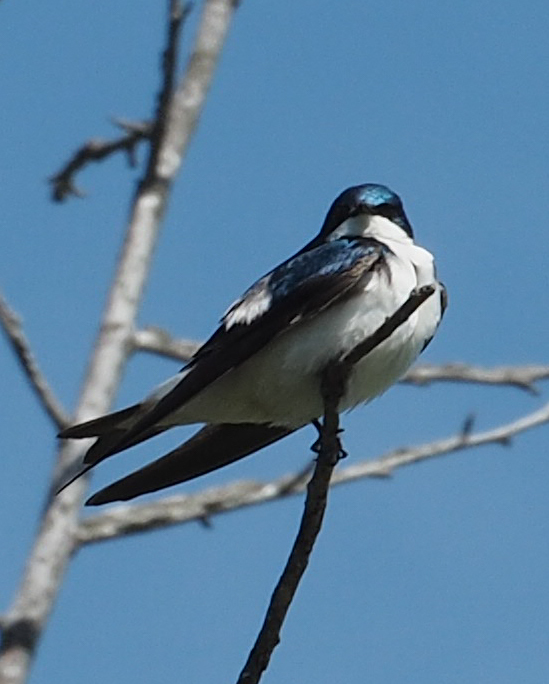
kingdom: Animalia
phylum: Chordata
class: Aves
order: Passeriformes
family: Hirundinidae
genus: Tachycineta
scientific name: Tachycineta bicolor
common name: Tree swallow
